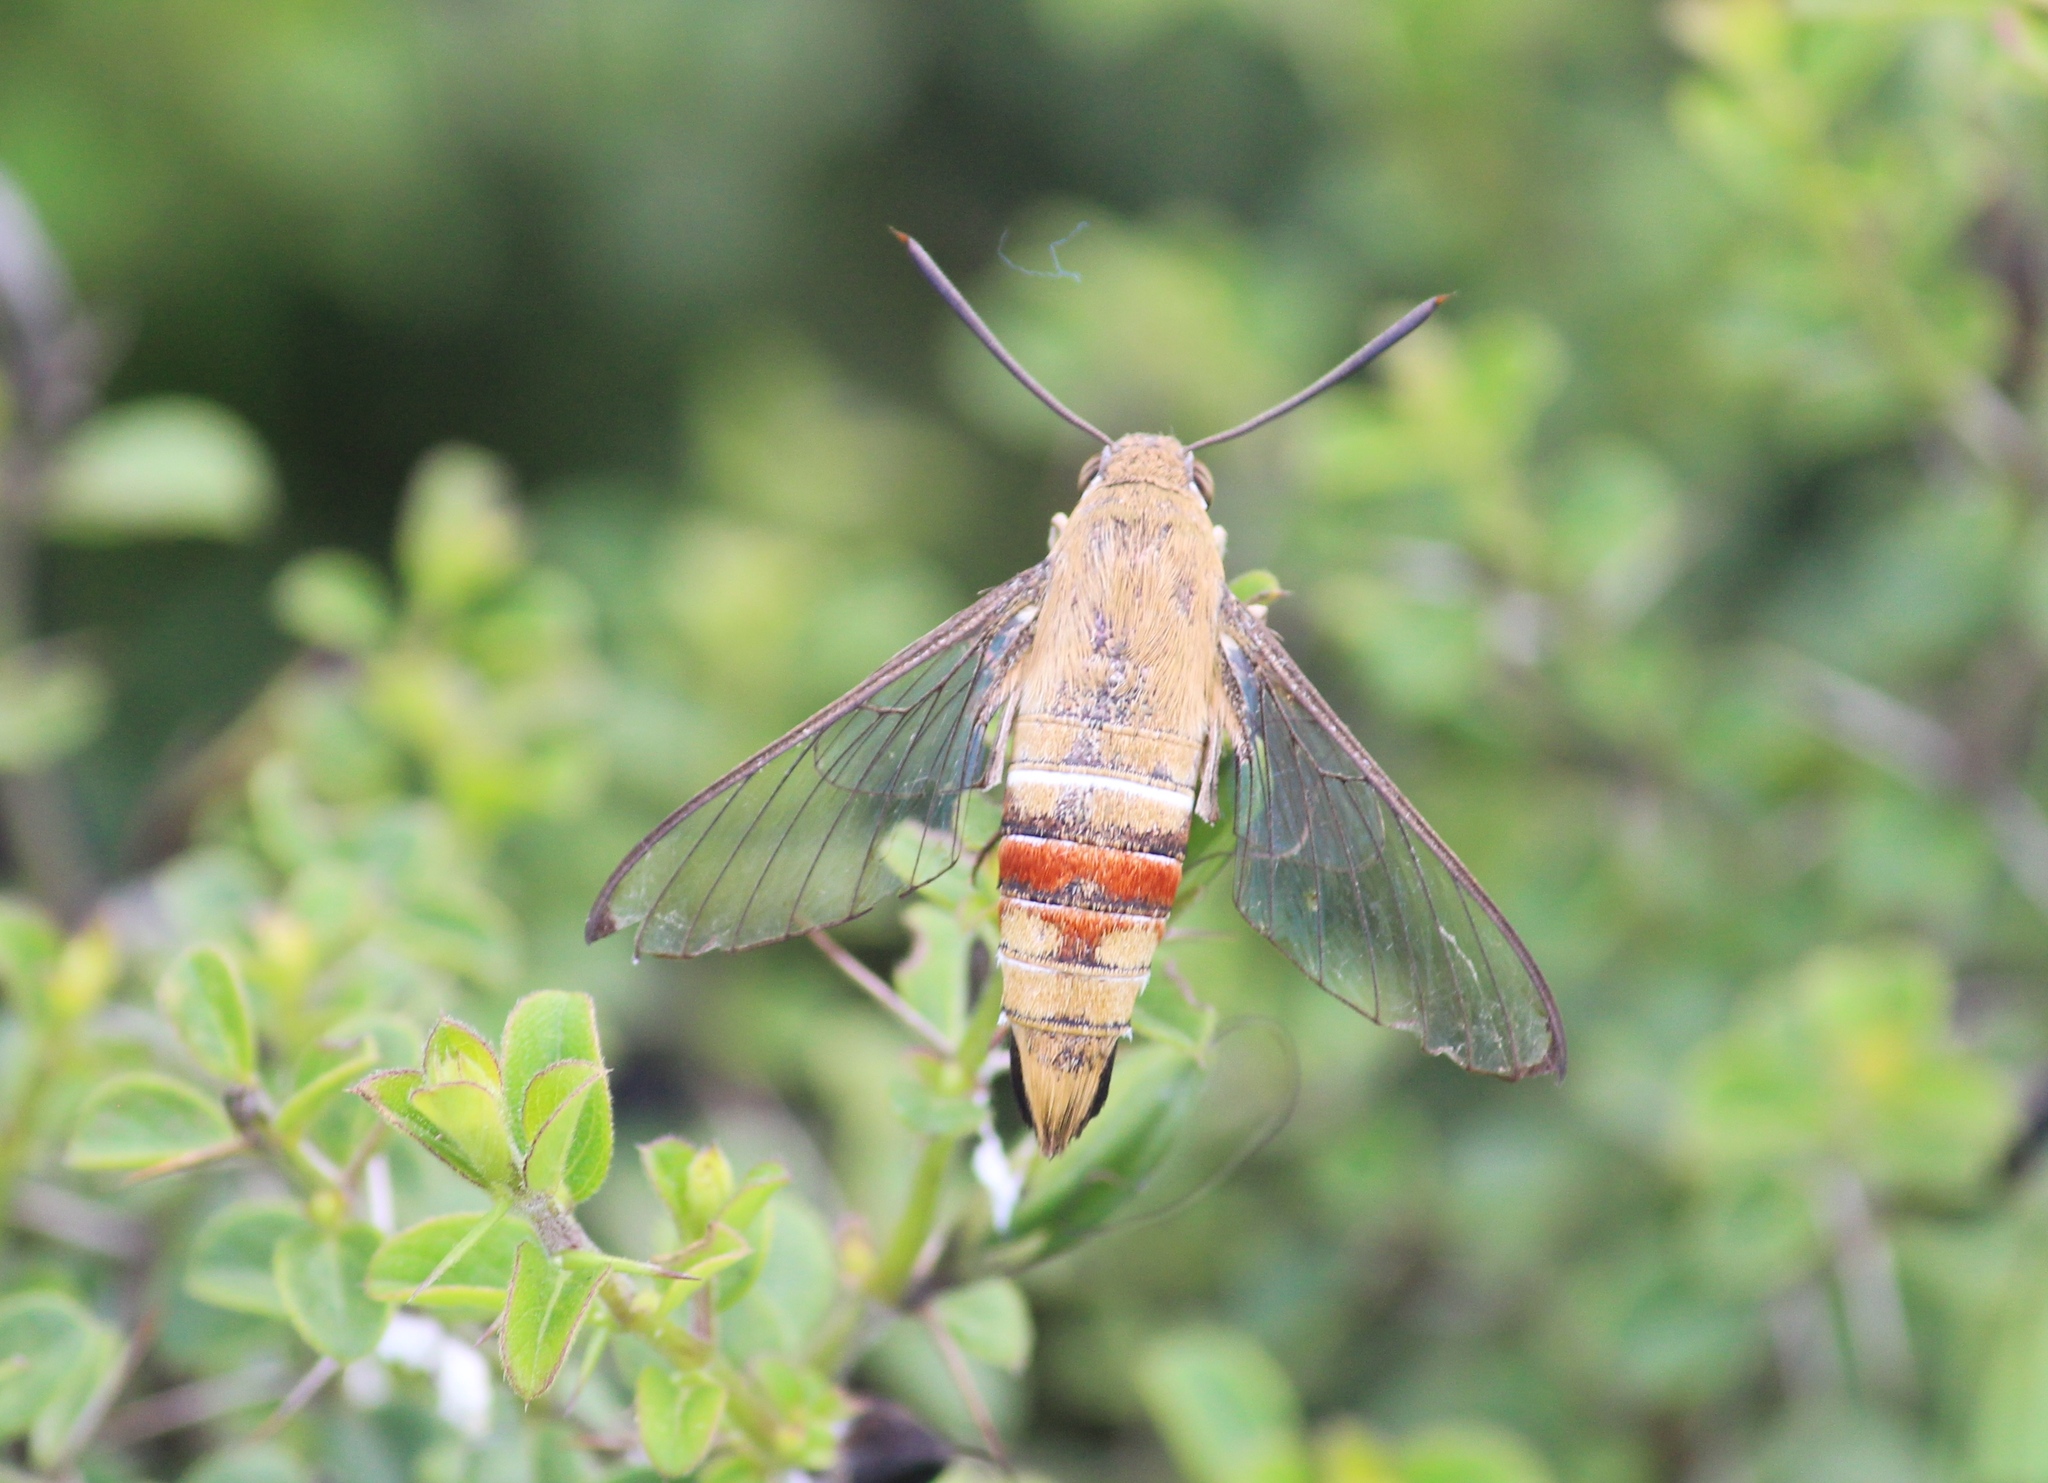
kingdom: Animalia
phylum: Arthropoda
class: Insecta
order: Lepidoptera
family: Sphingidae
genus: Cephonodes
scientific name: Cephonodes hylas
